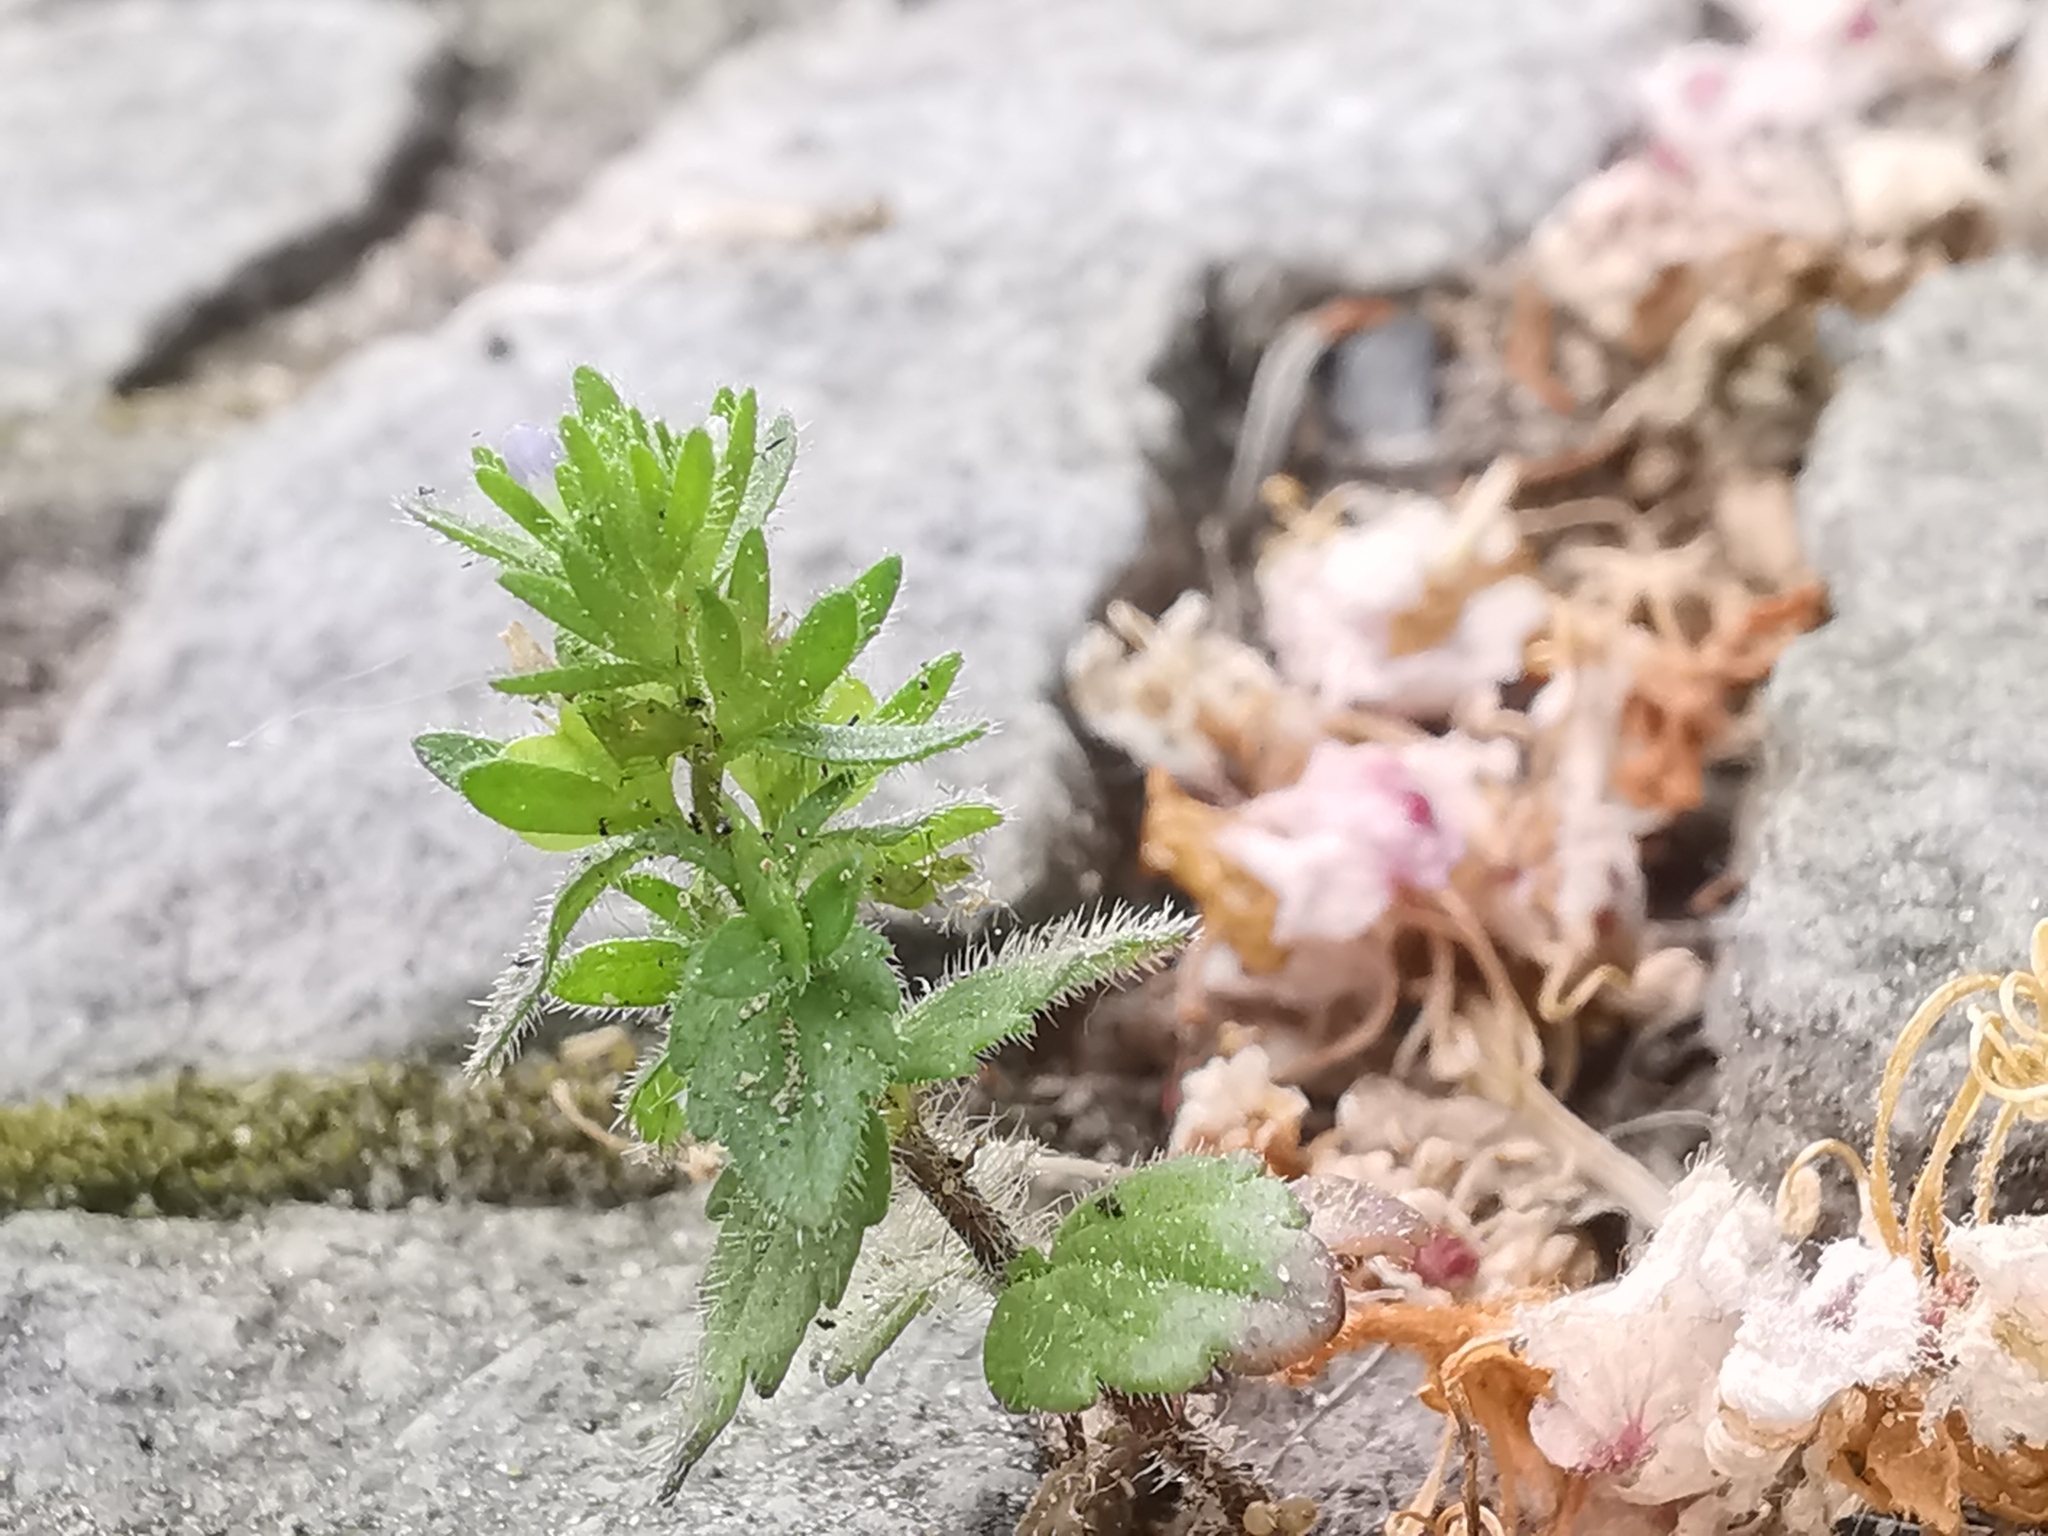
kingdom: Plantae
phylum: Tracheophyta
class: Magnoliopsida
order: Lamiales
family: Plantaginaceae
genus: Veronica
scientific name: Veronica arvensis
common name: Corn speedwell
